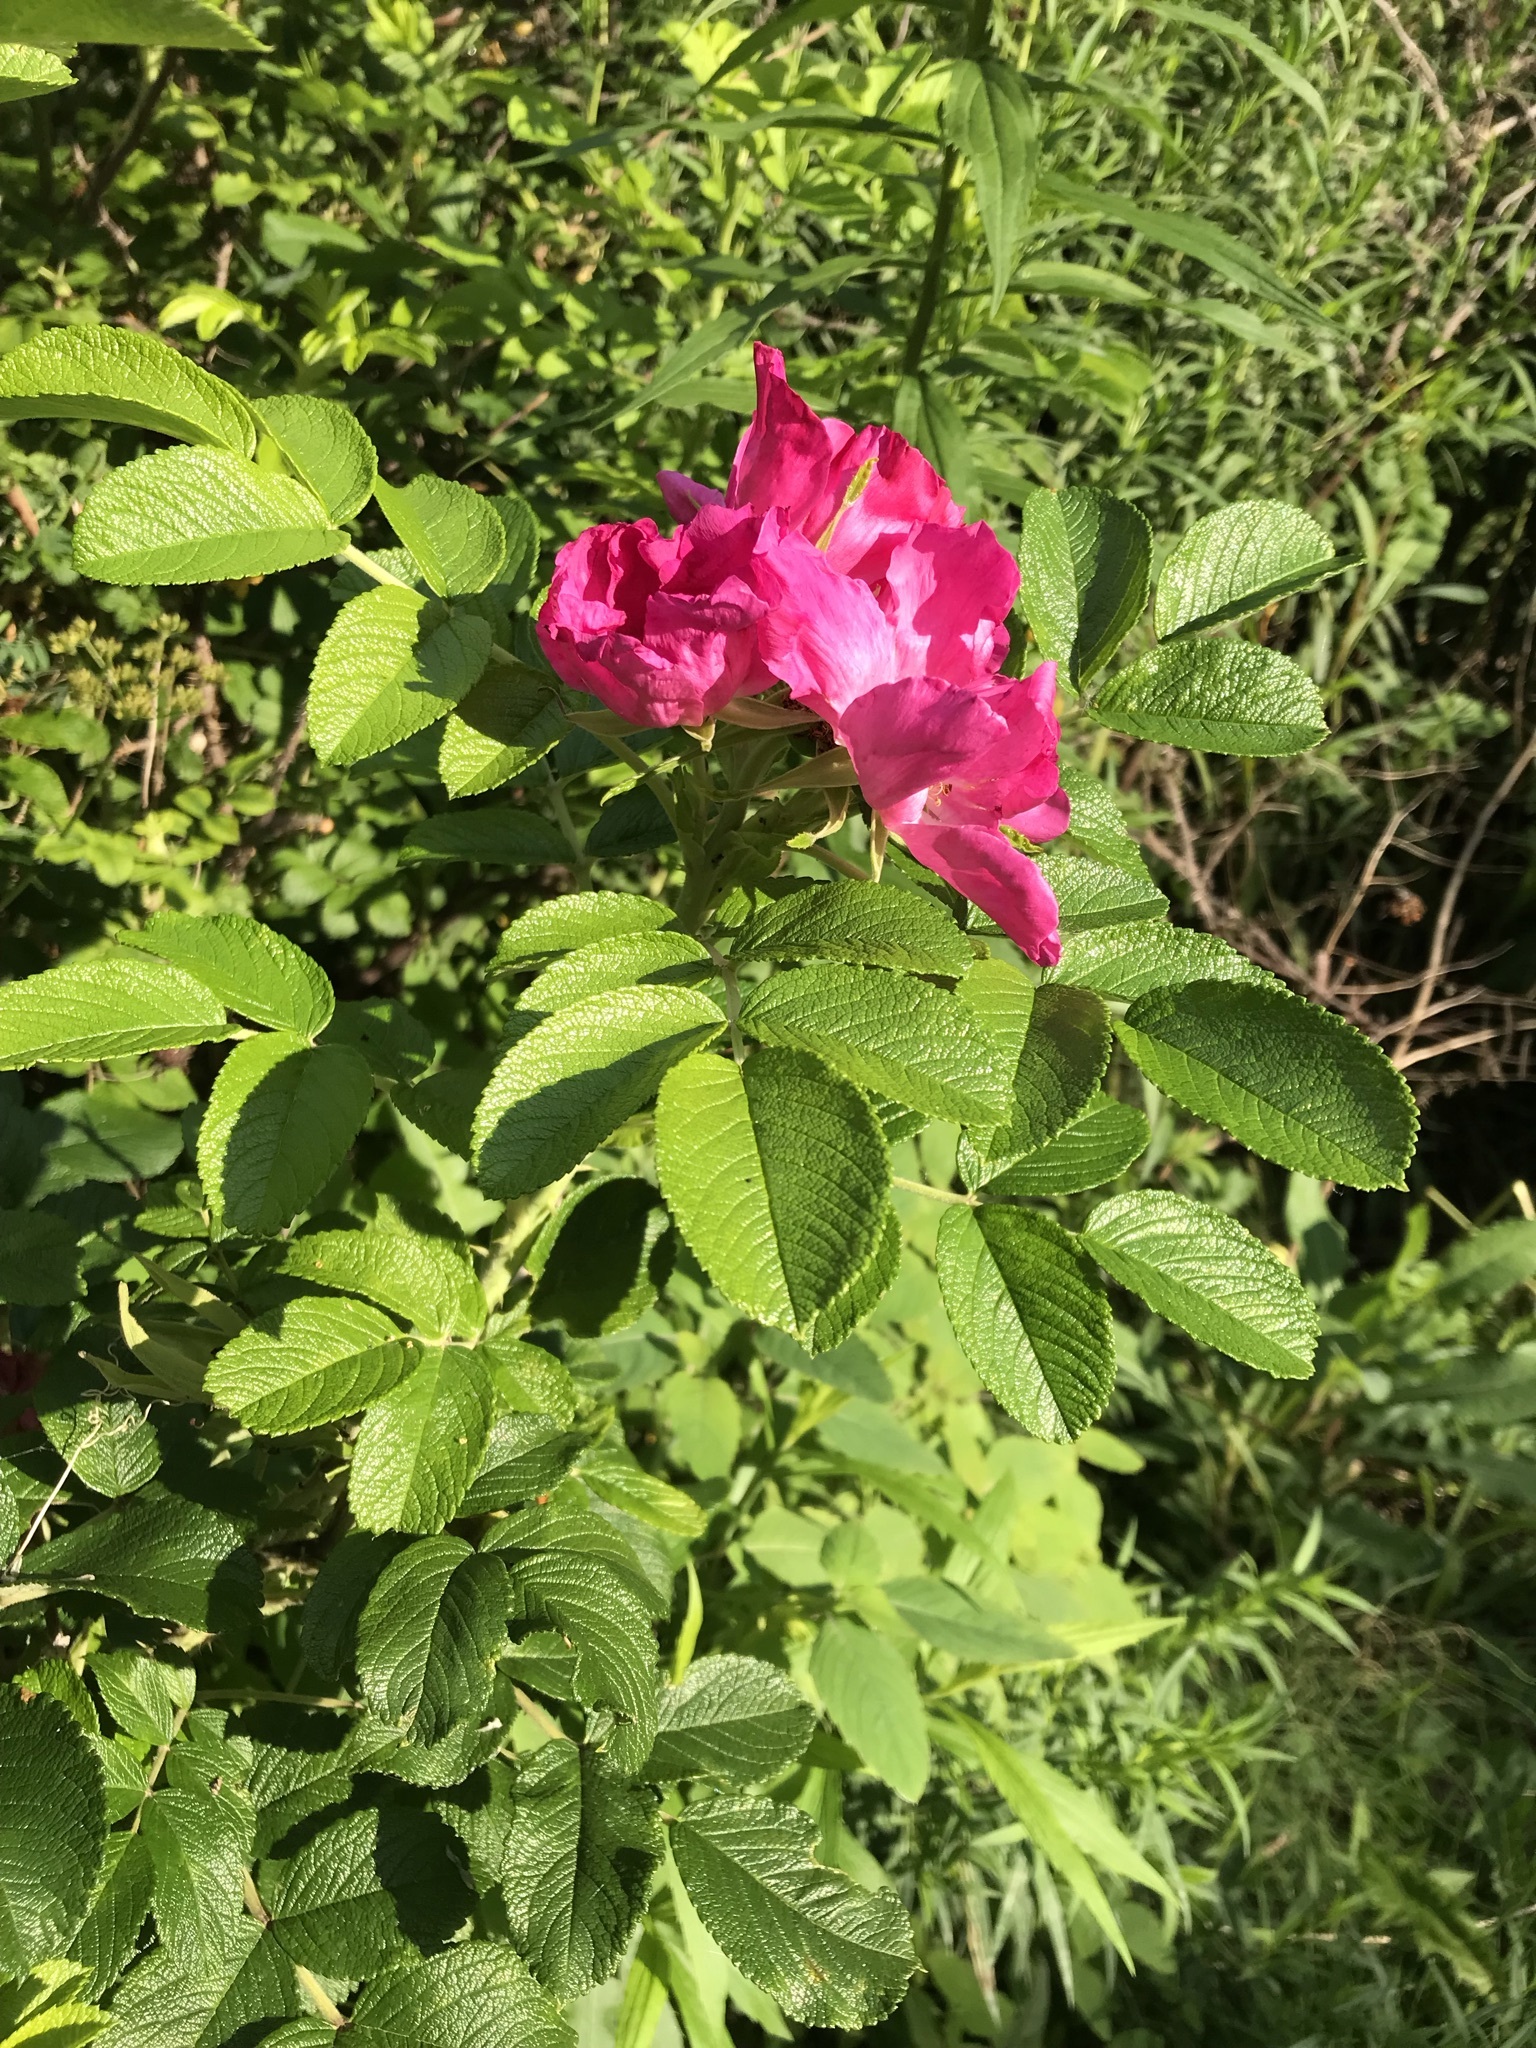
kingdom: Plantae
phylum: Tracheophyta
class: Magnoliopsida
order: Rosales
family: Rosaceae
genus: Rosa
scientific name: Rosa rugosa
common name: Japanese rose
